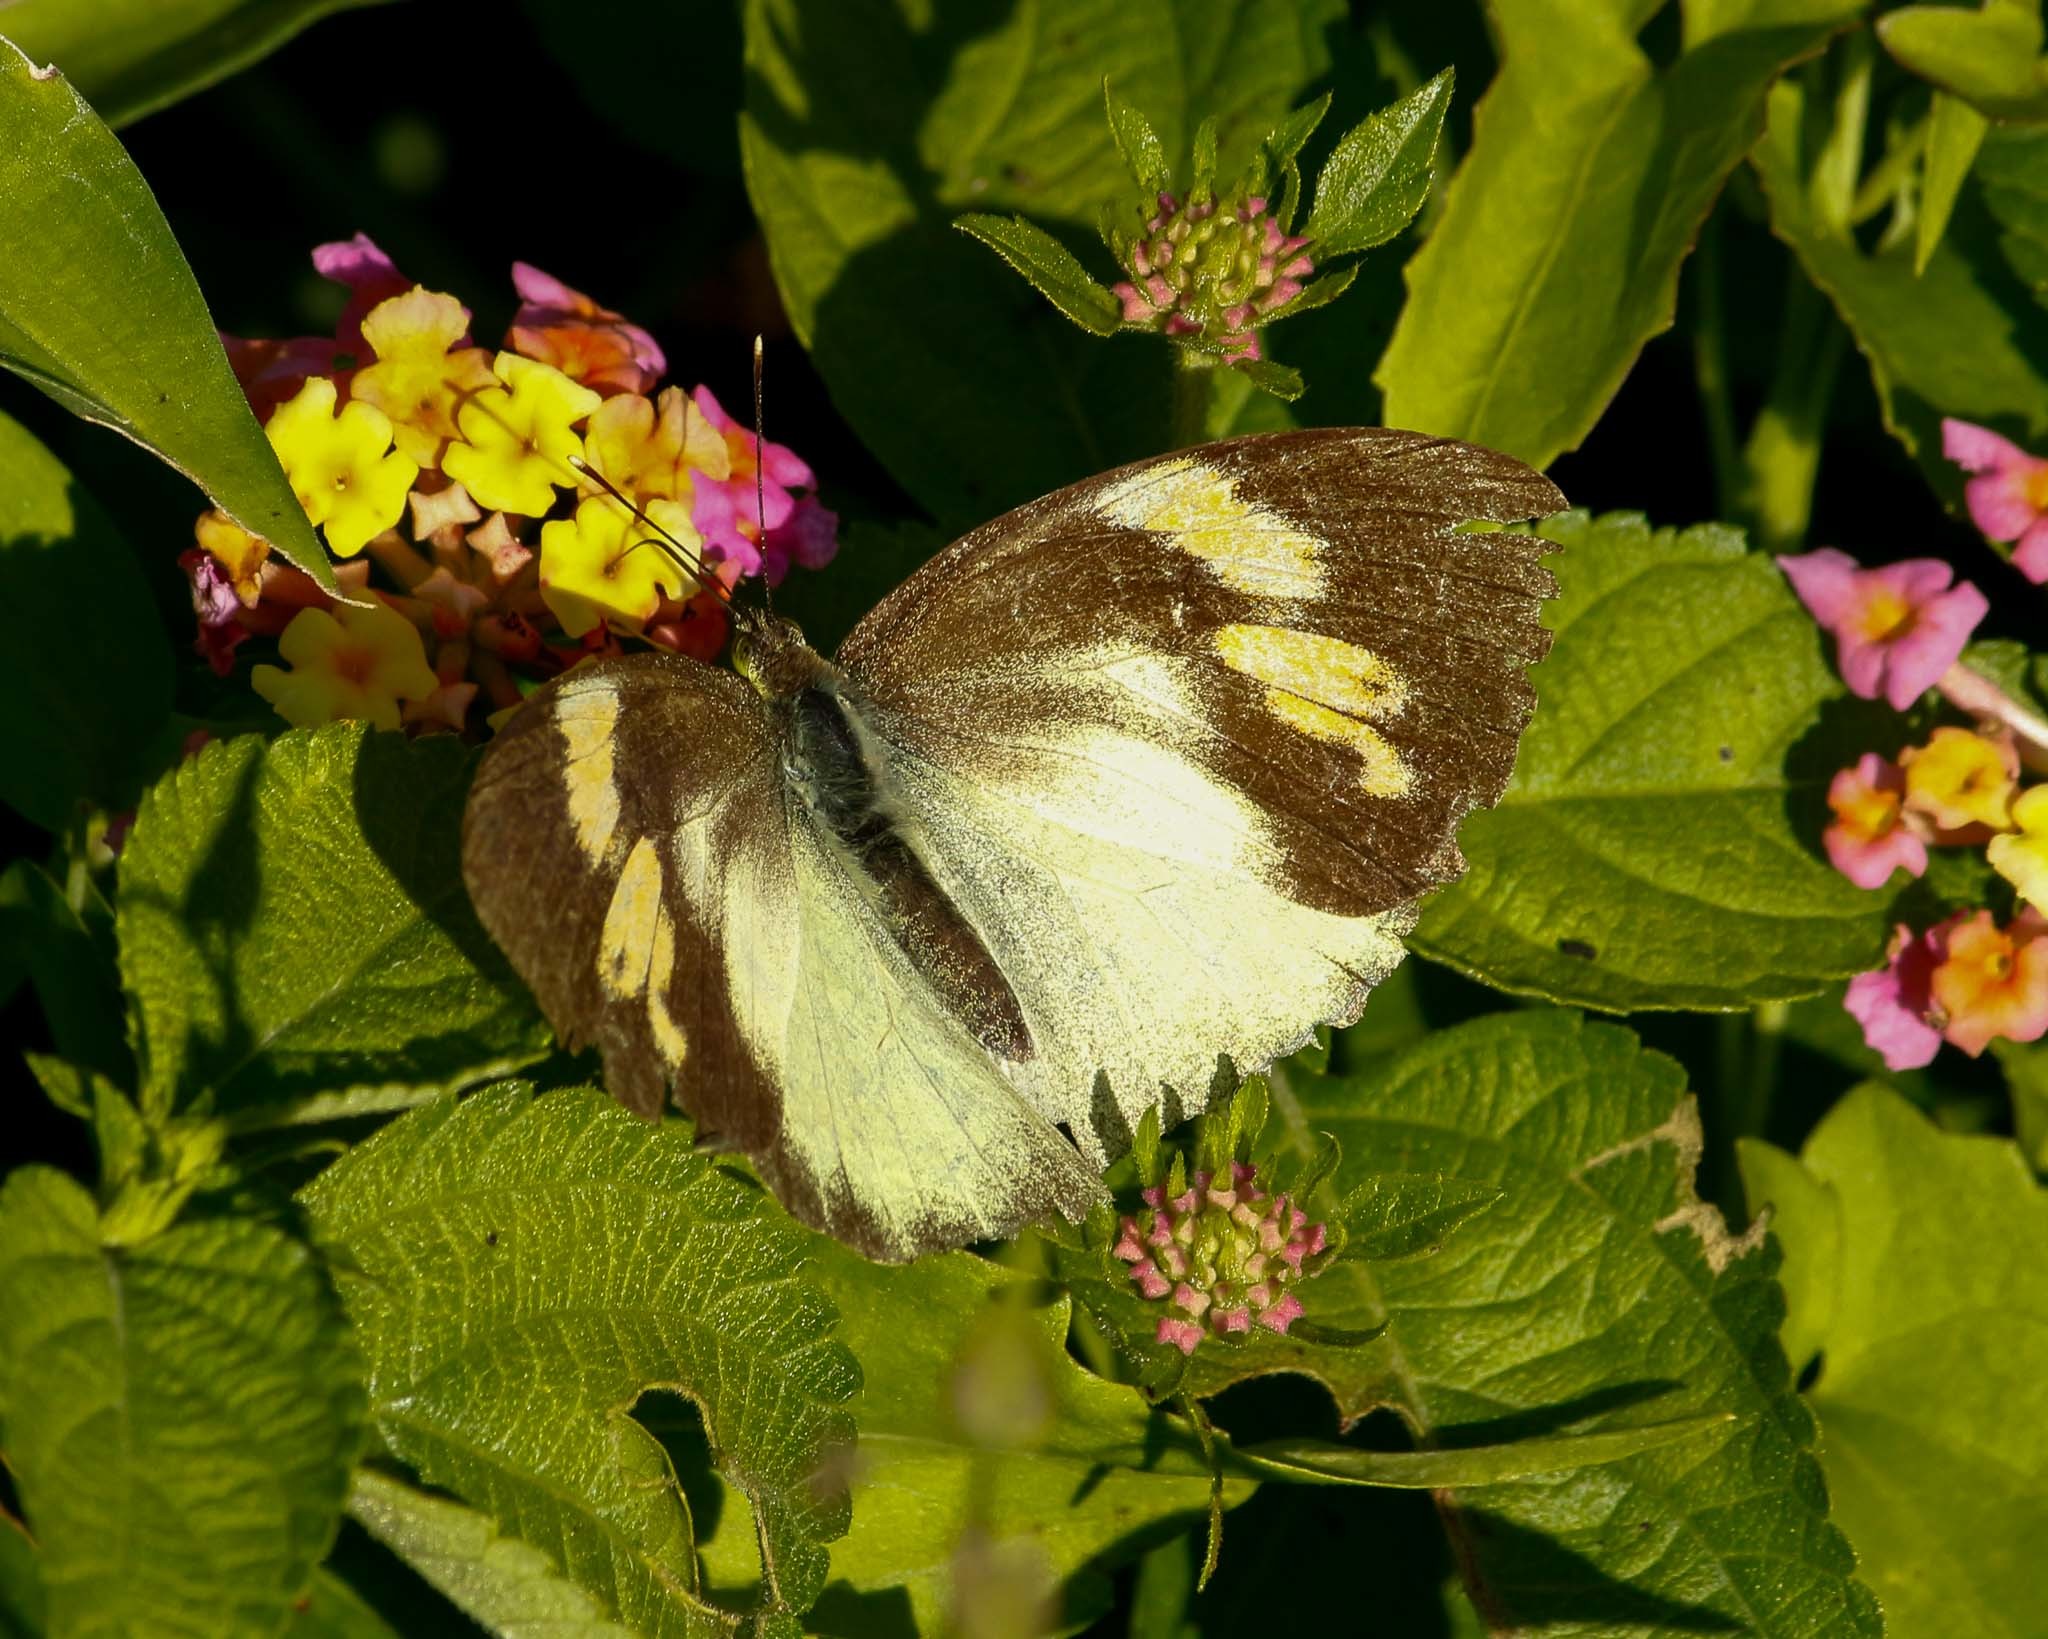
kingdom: Animalia
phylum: Arthropoda
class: Insecta
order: Lepidoptera
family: Pieridae
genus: Ixias
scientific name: Ixias pyrene
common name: Yellow orange tip
